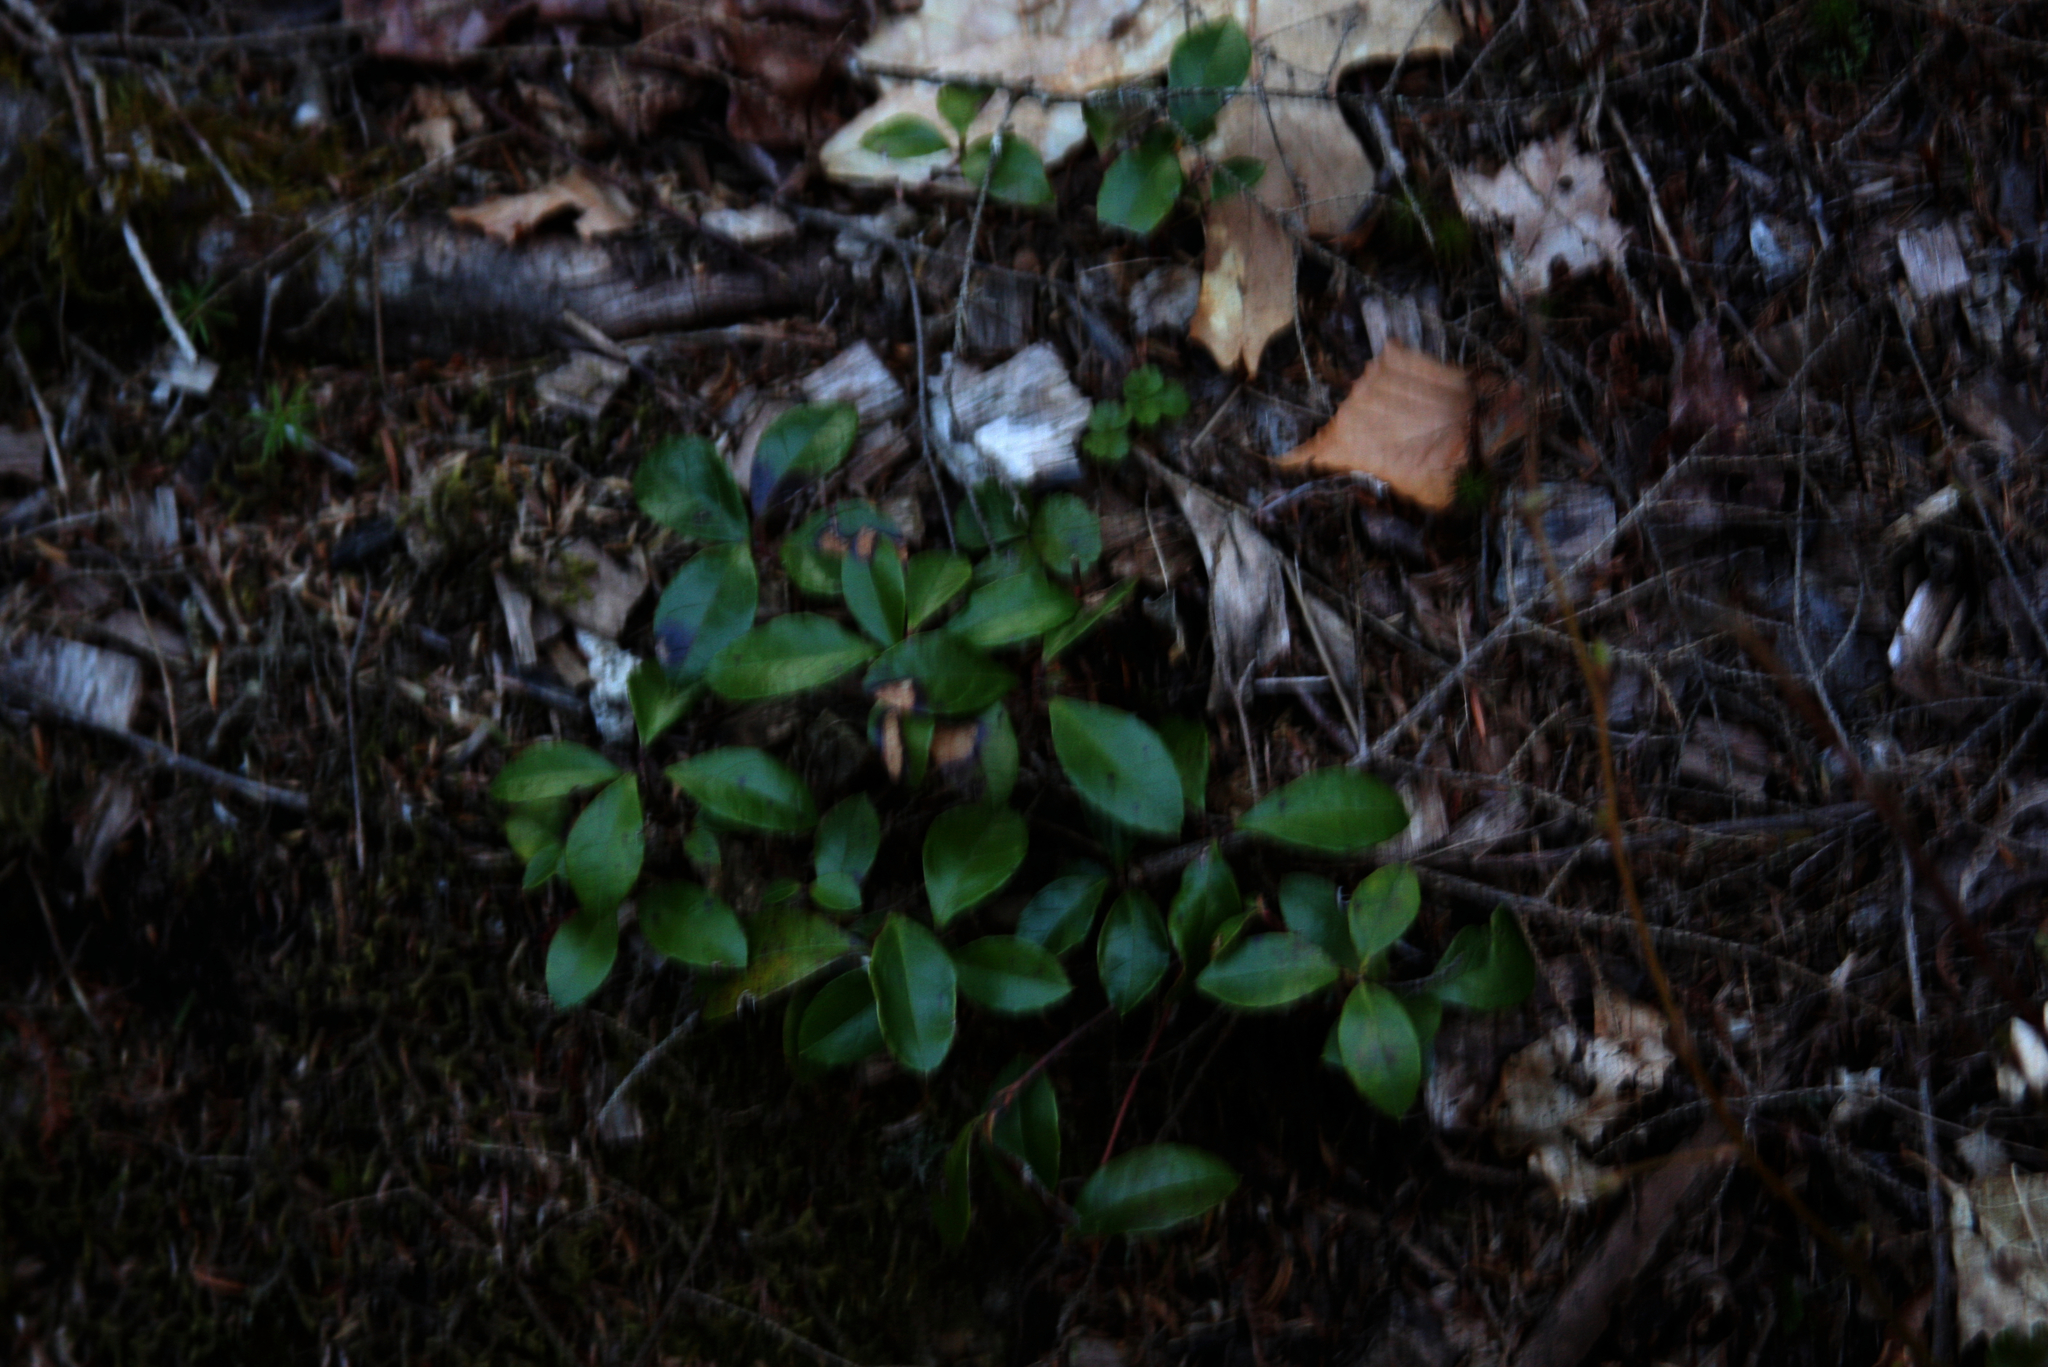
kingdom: Plantae
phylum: Tracheophyta
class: Magnoliopsida
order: Ericales
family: Ericaceae
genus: Gaultheria
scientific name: Gaultheria procumbens
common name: Checkerberry
